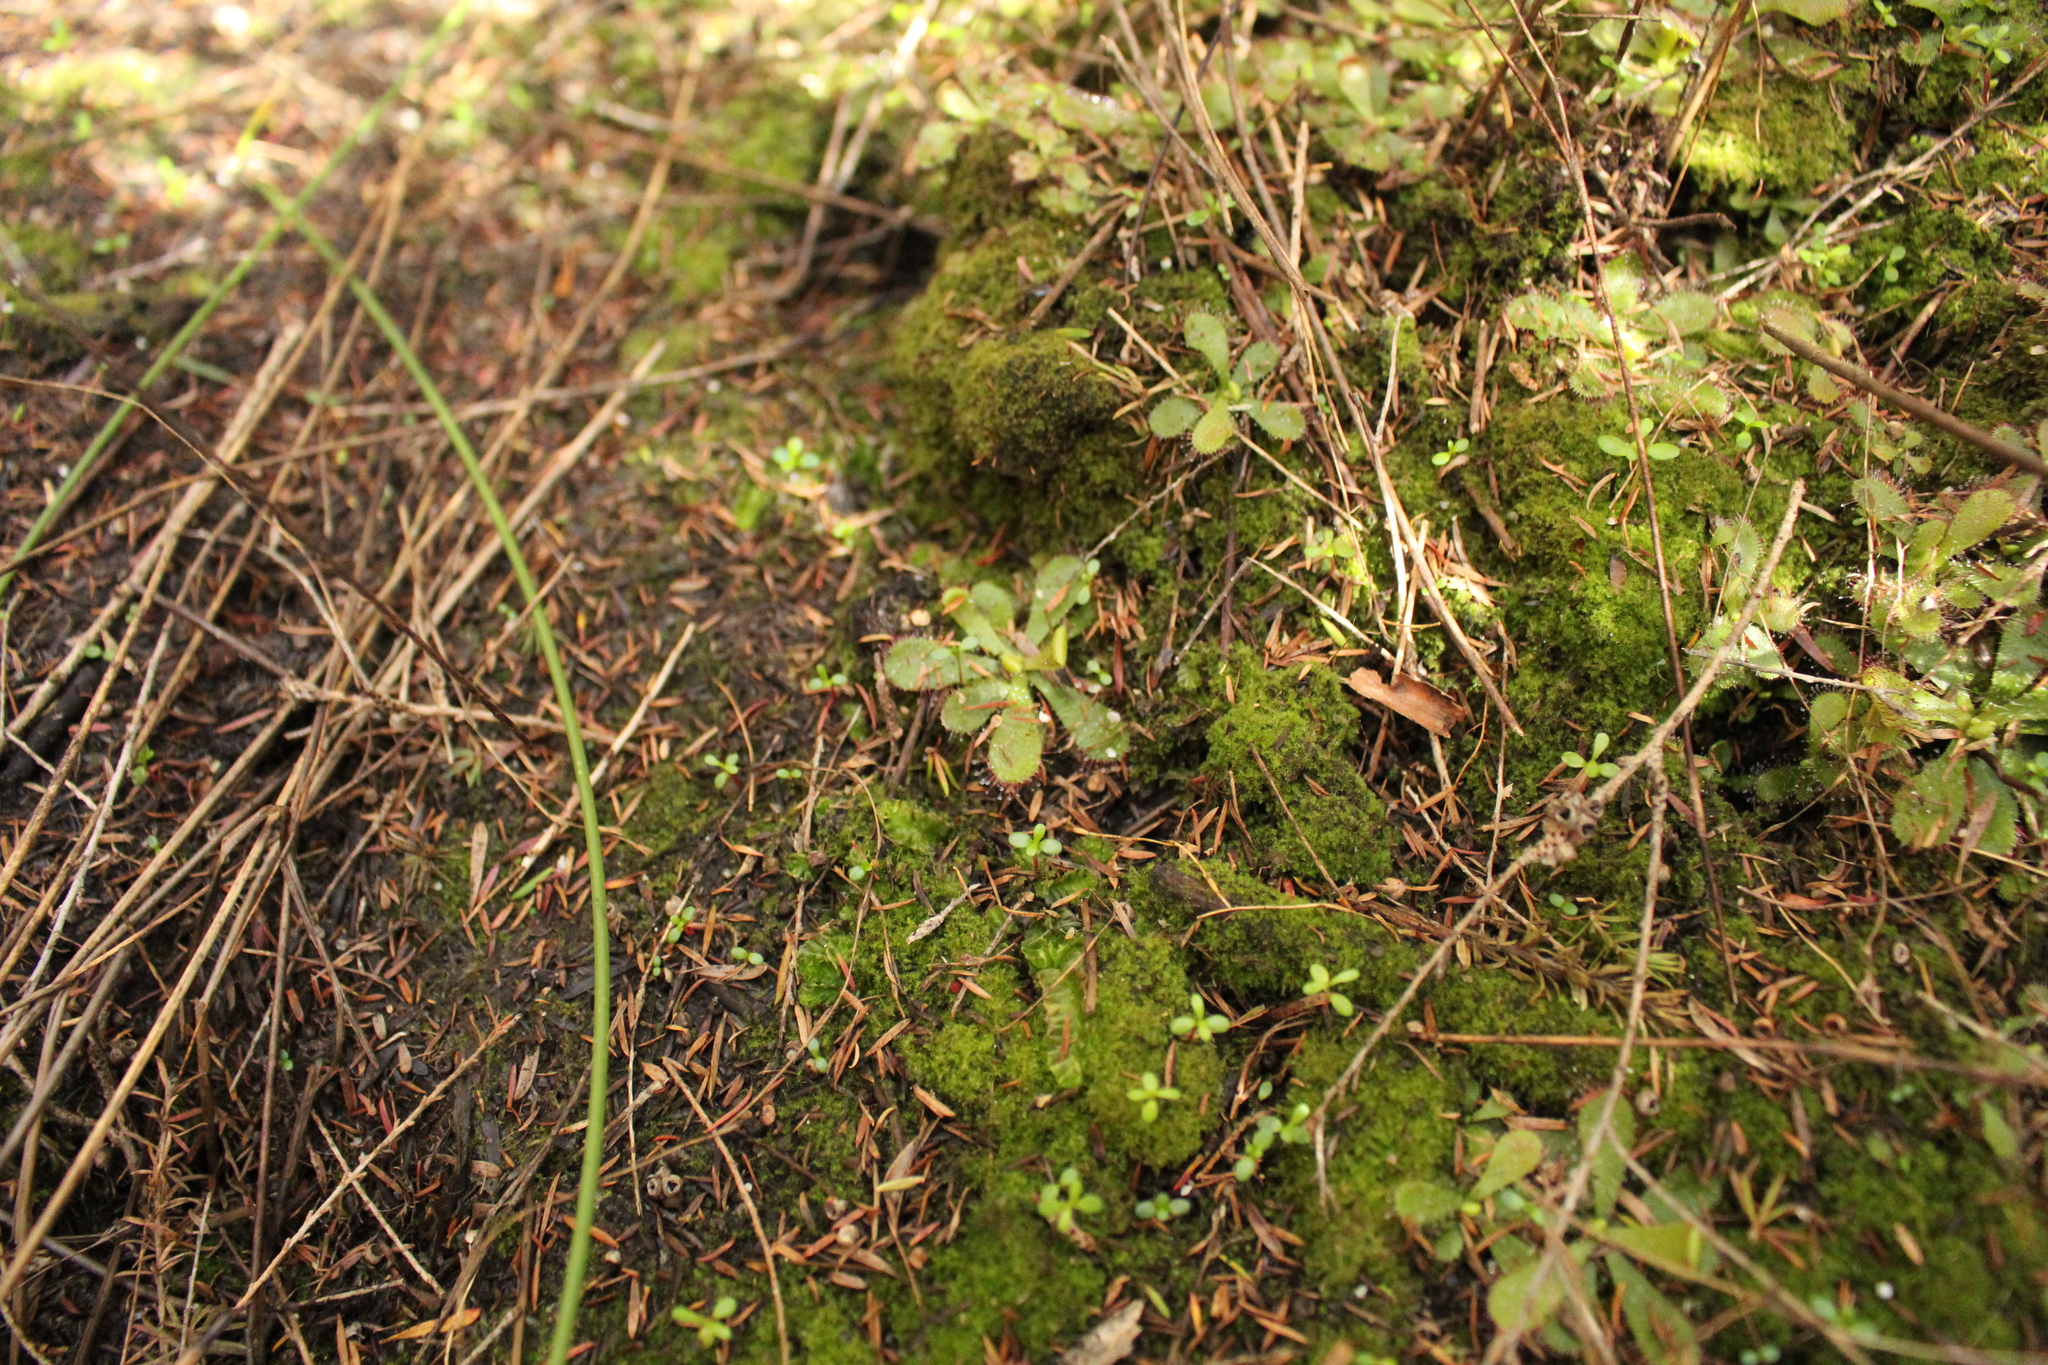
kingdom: Plantae
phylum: Tracheophyta
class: Magnoliopsida
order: Caryophyllales
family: Droseraceae
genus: Drosera
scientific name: Drosera hamiltonii
